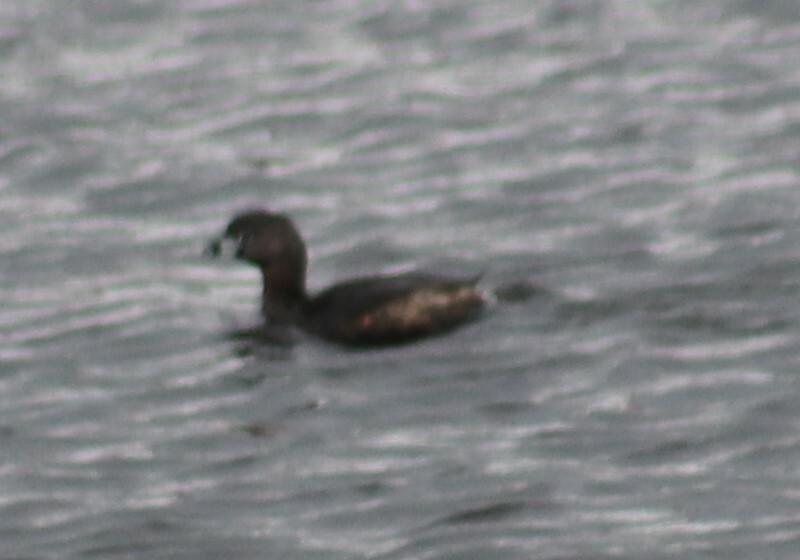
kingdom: Animalia
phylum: Chordata
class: Aves
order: Podicipediformes
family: Podicipedidae
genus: Podilymbus
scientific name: Podilymbus podiceps
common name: Pied-billed grebe
